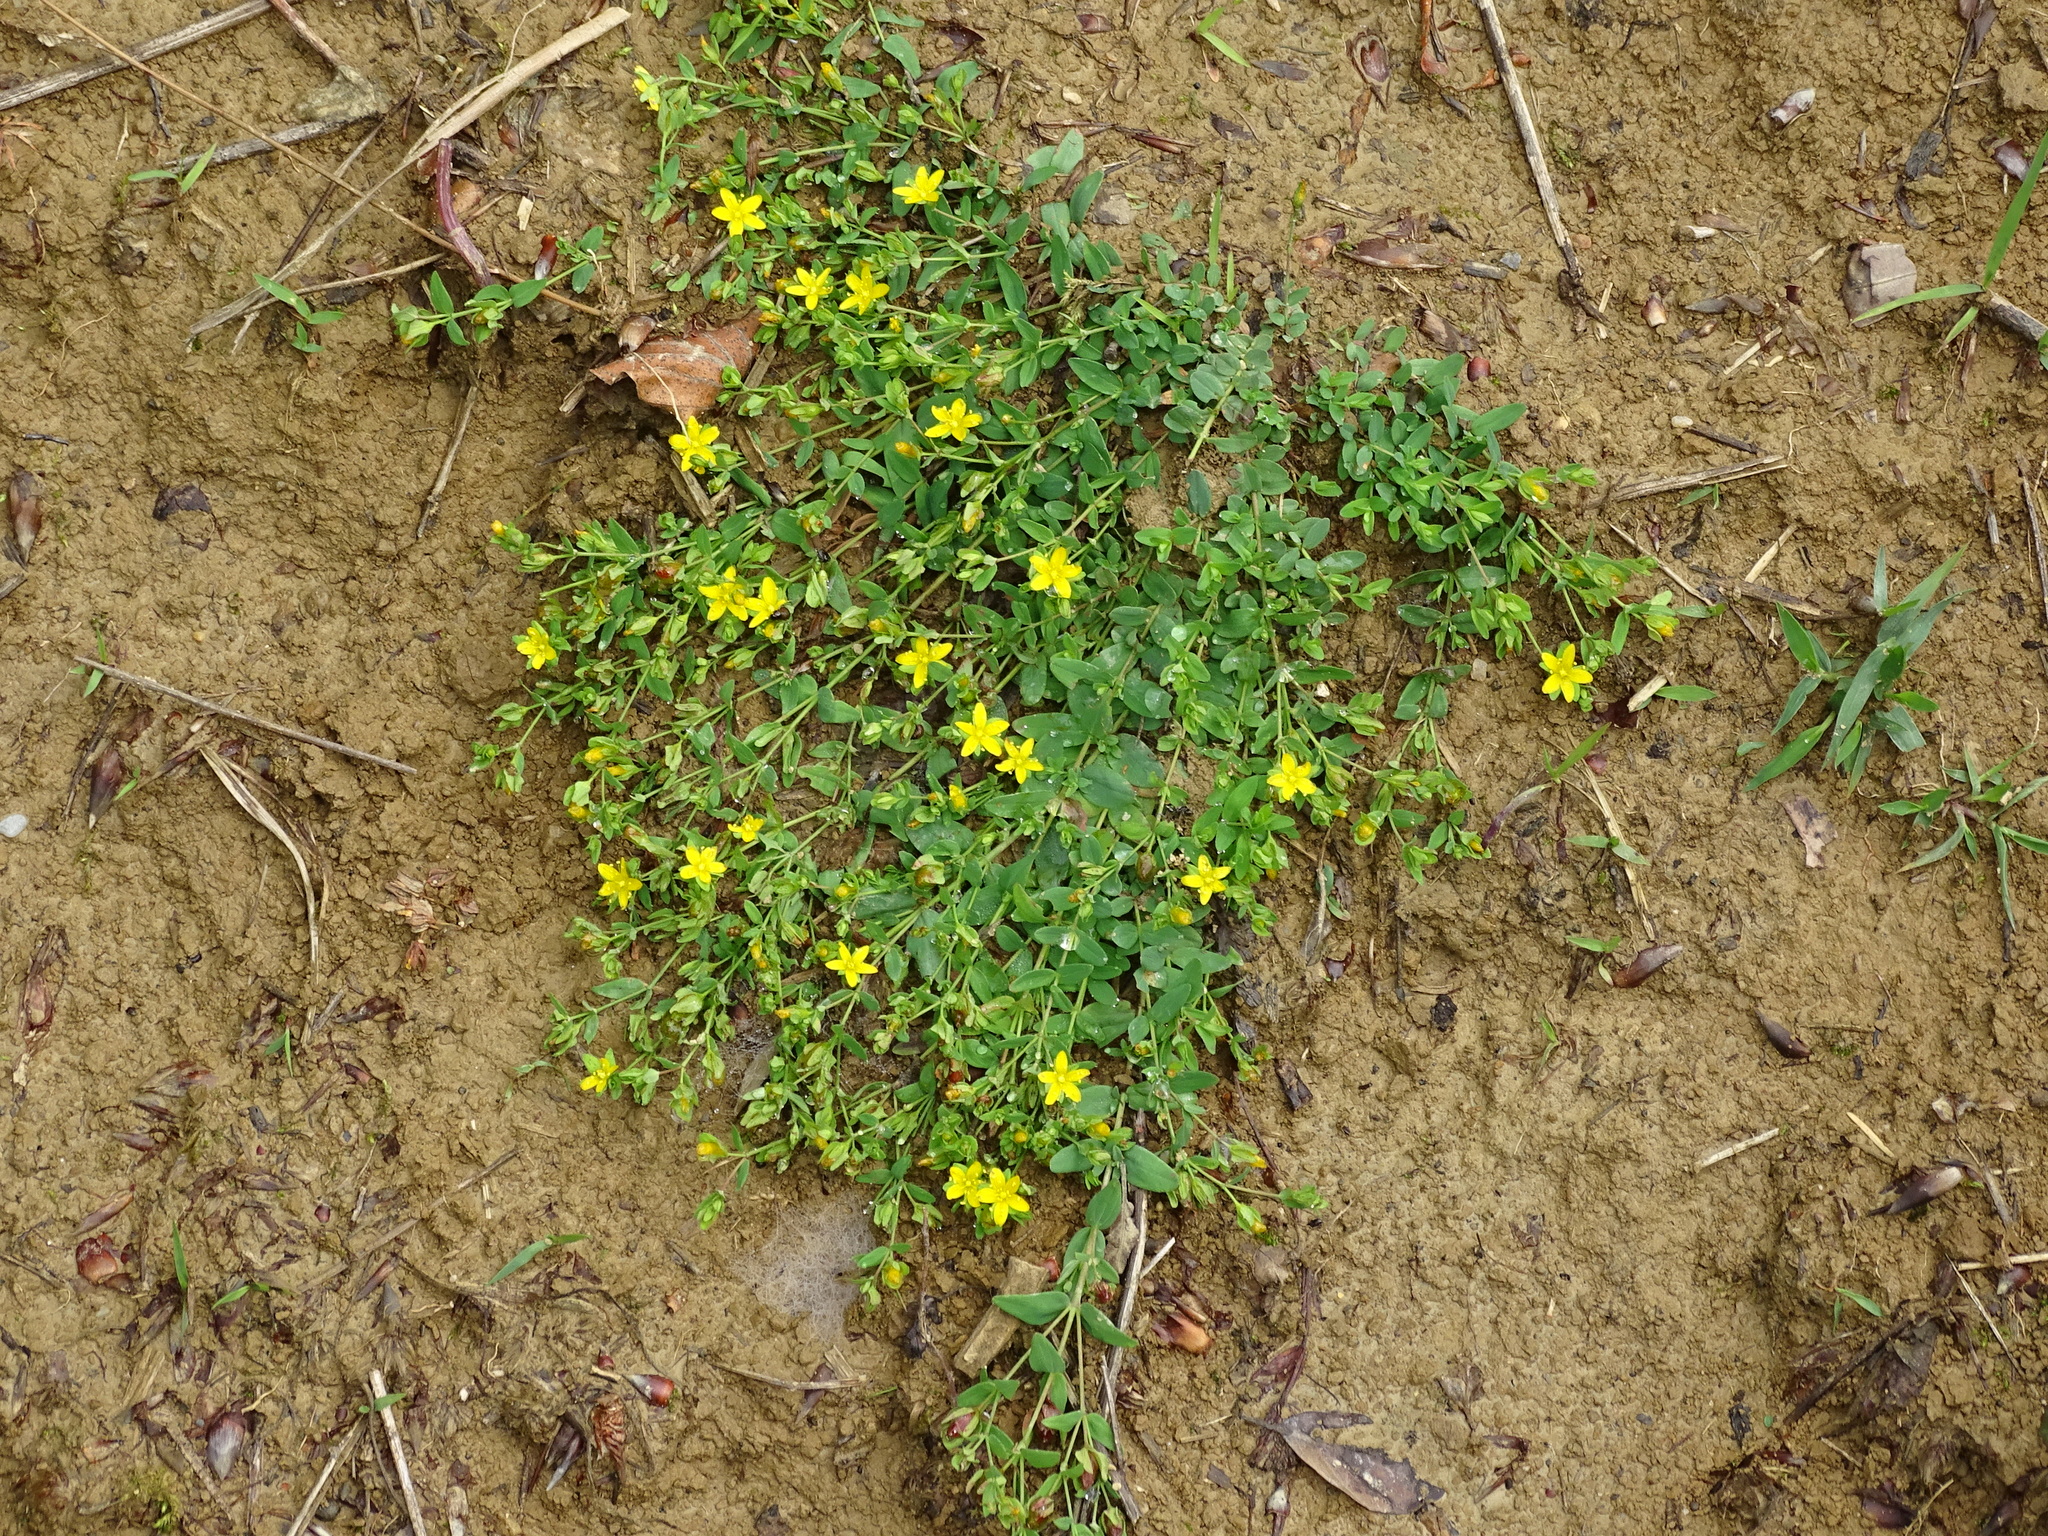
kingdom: Plantae
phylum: Tracheophyta
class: Magnoliopsida
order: Malpighiales
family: Hypericaceae
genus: Hypericum
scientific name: Hypericum humifusum
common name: Trailing st. john's-wort
